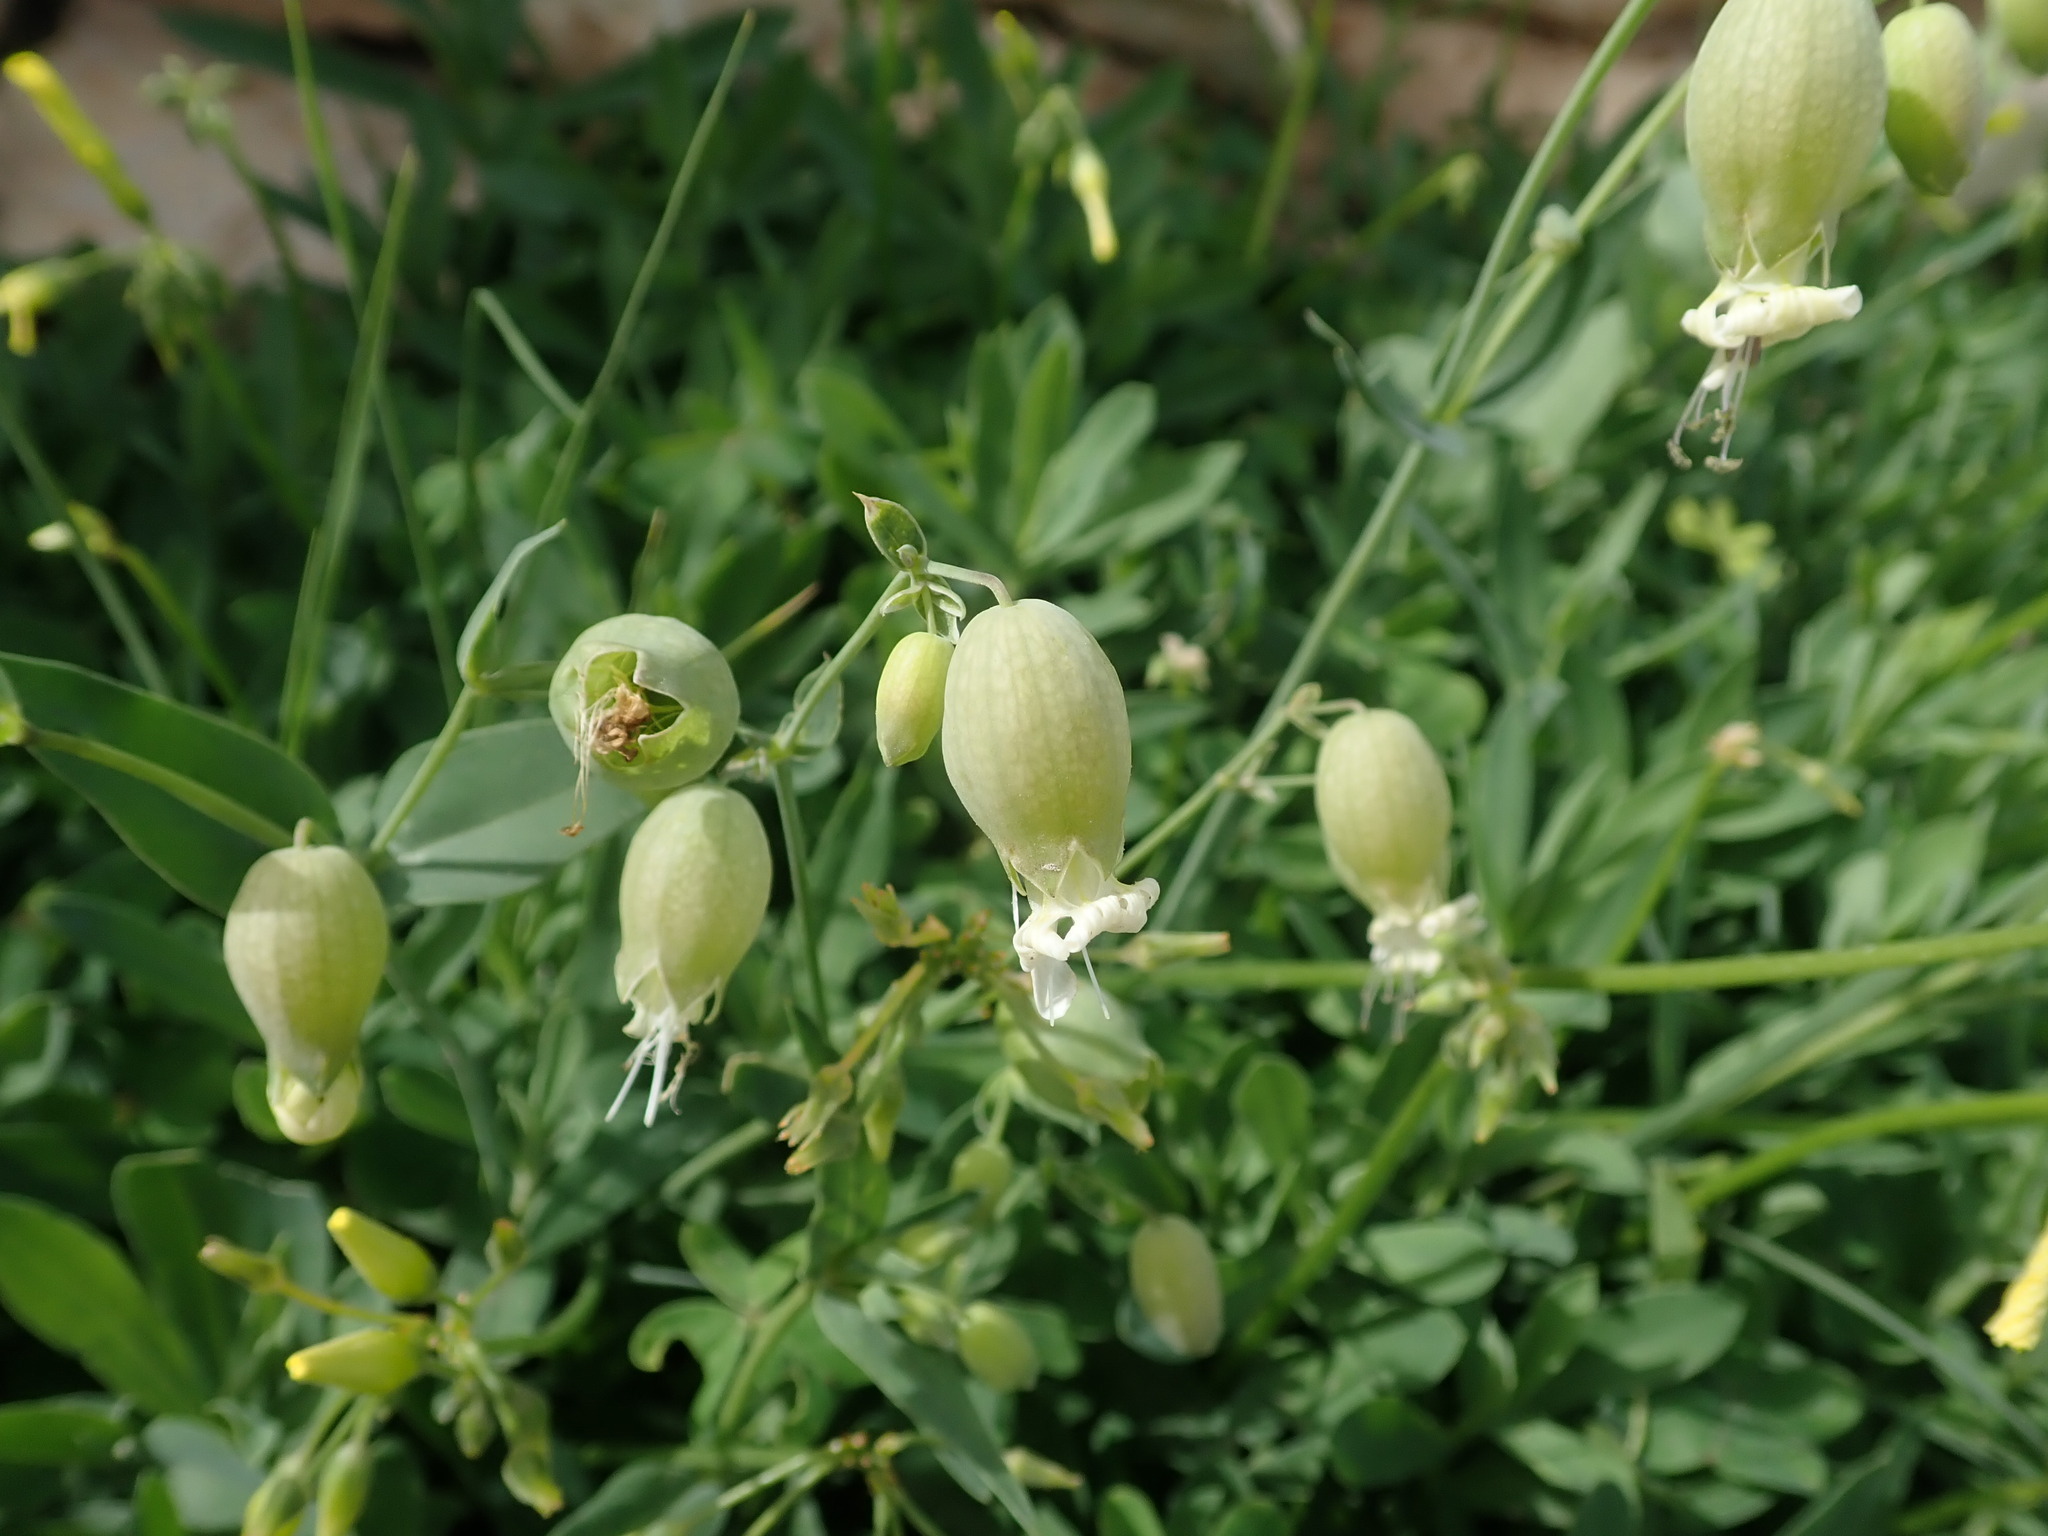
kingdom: Plantae
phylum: Tracheophyta
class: Magnoliopsida
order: Caryophyllales
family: Caryophyllaceae
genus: Silene
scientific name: Silene vulgaris
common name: Bladder campion
